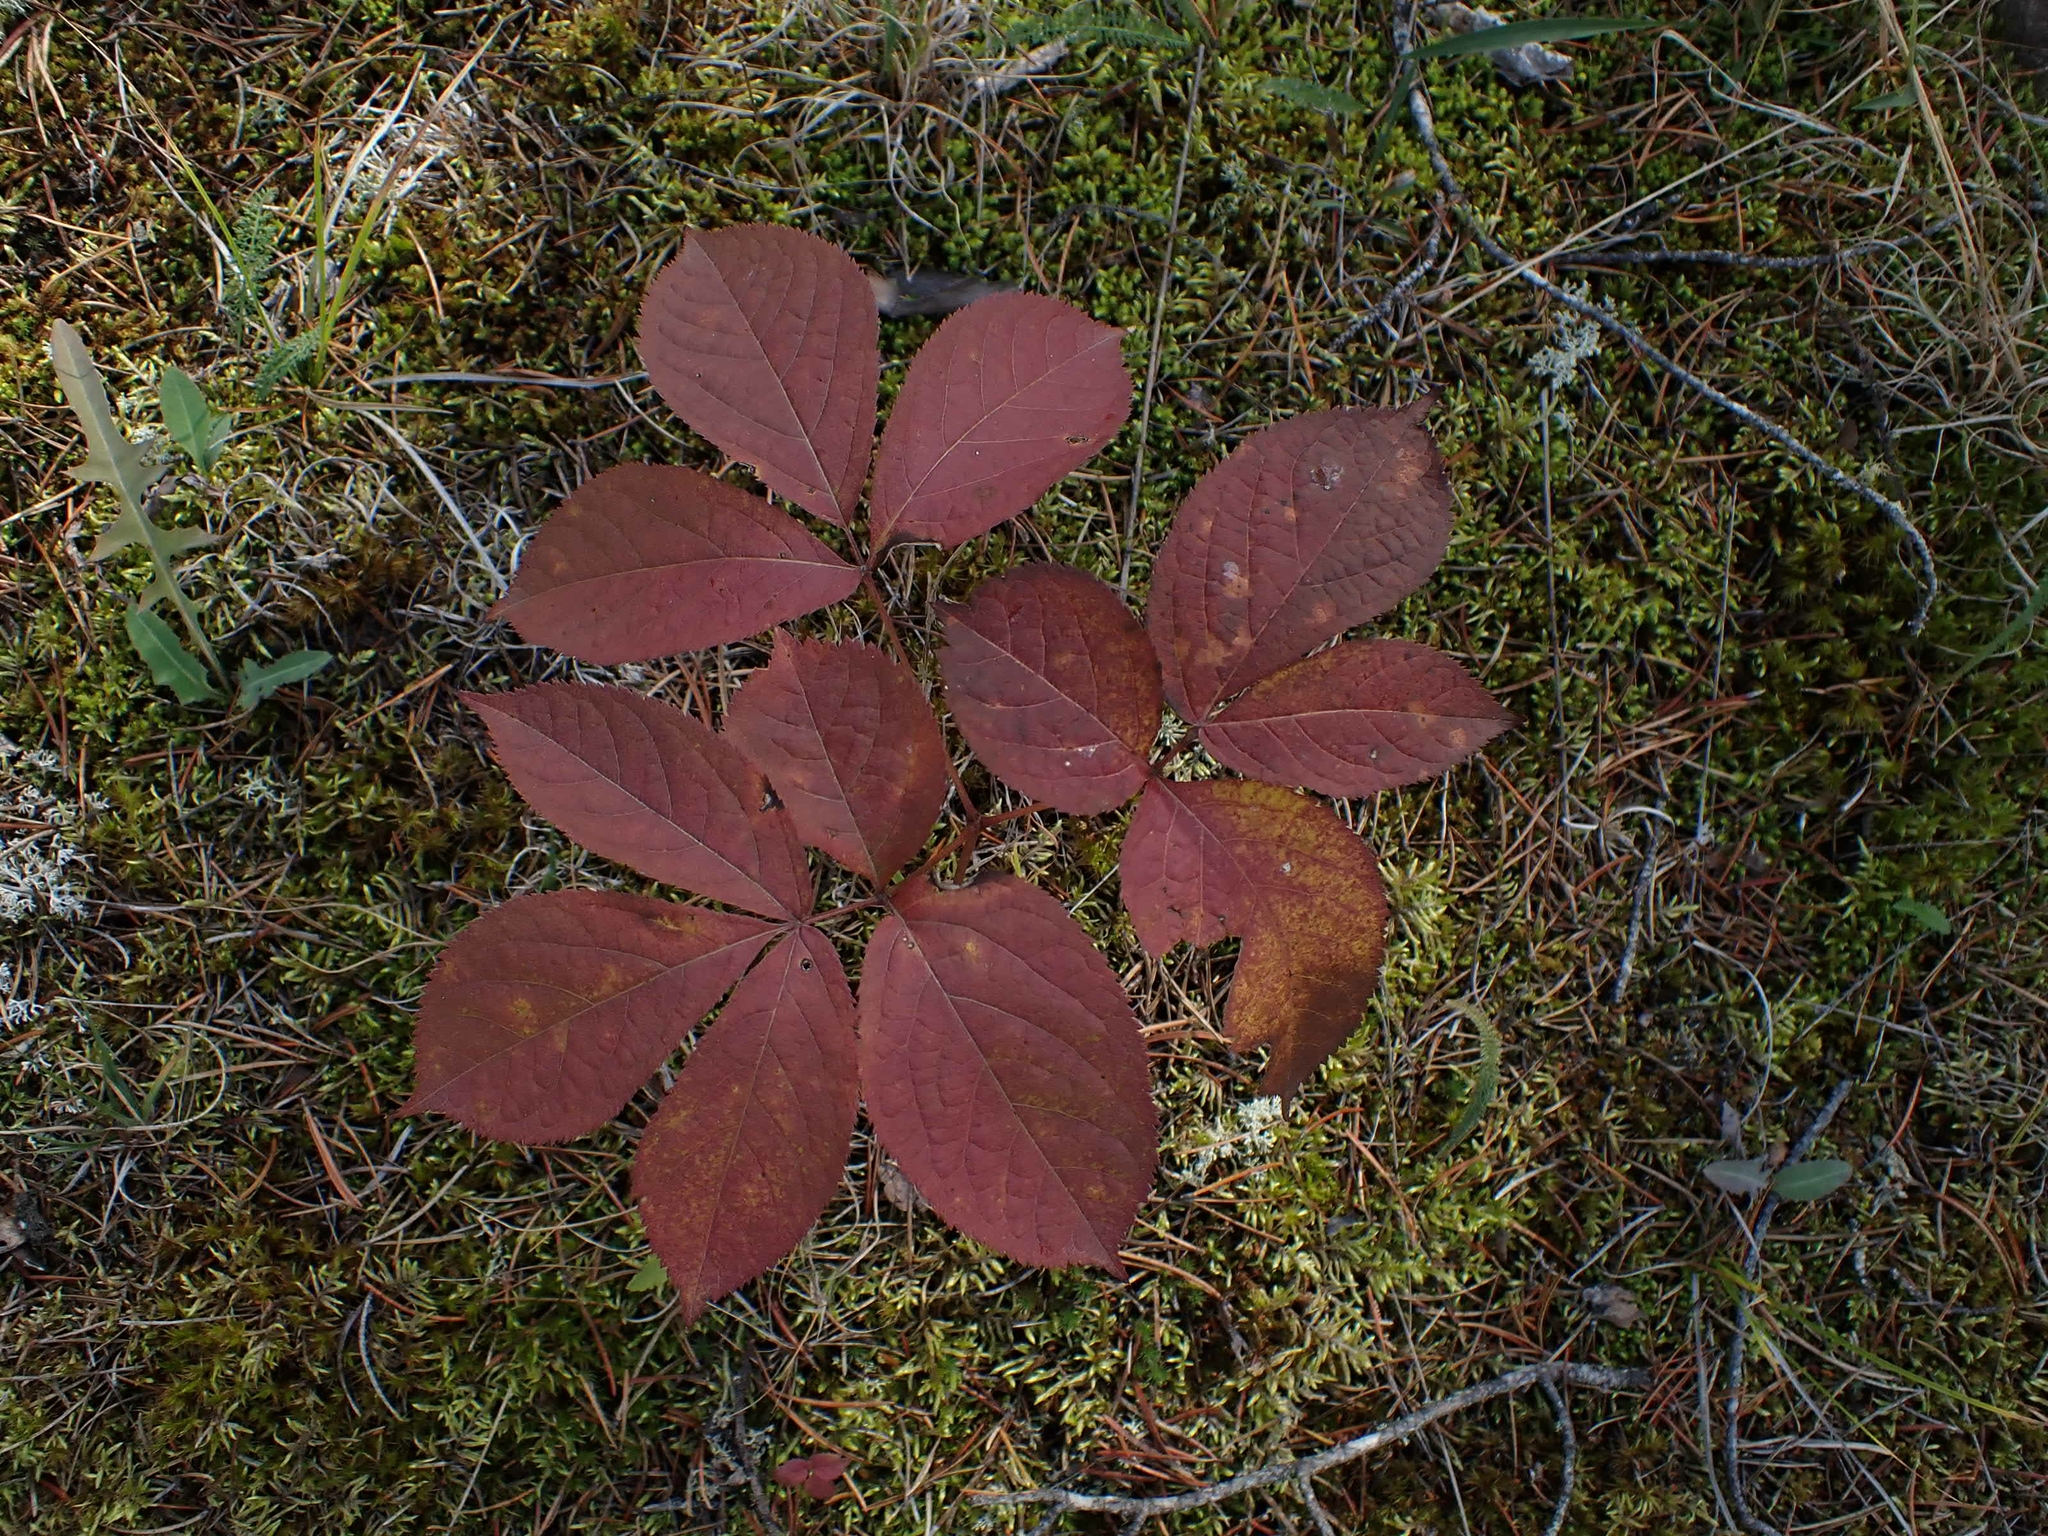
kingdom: Plantae
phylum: Tracheophyta
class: Magnoliopsida
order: Apiales
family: Araliaceae
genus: Aralia
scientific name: Aralia nudicaulis
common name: Wild sarsaparilla
